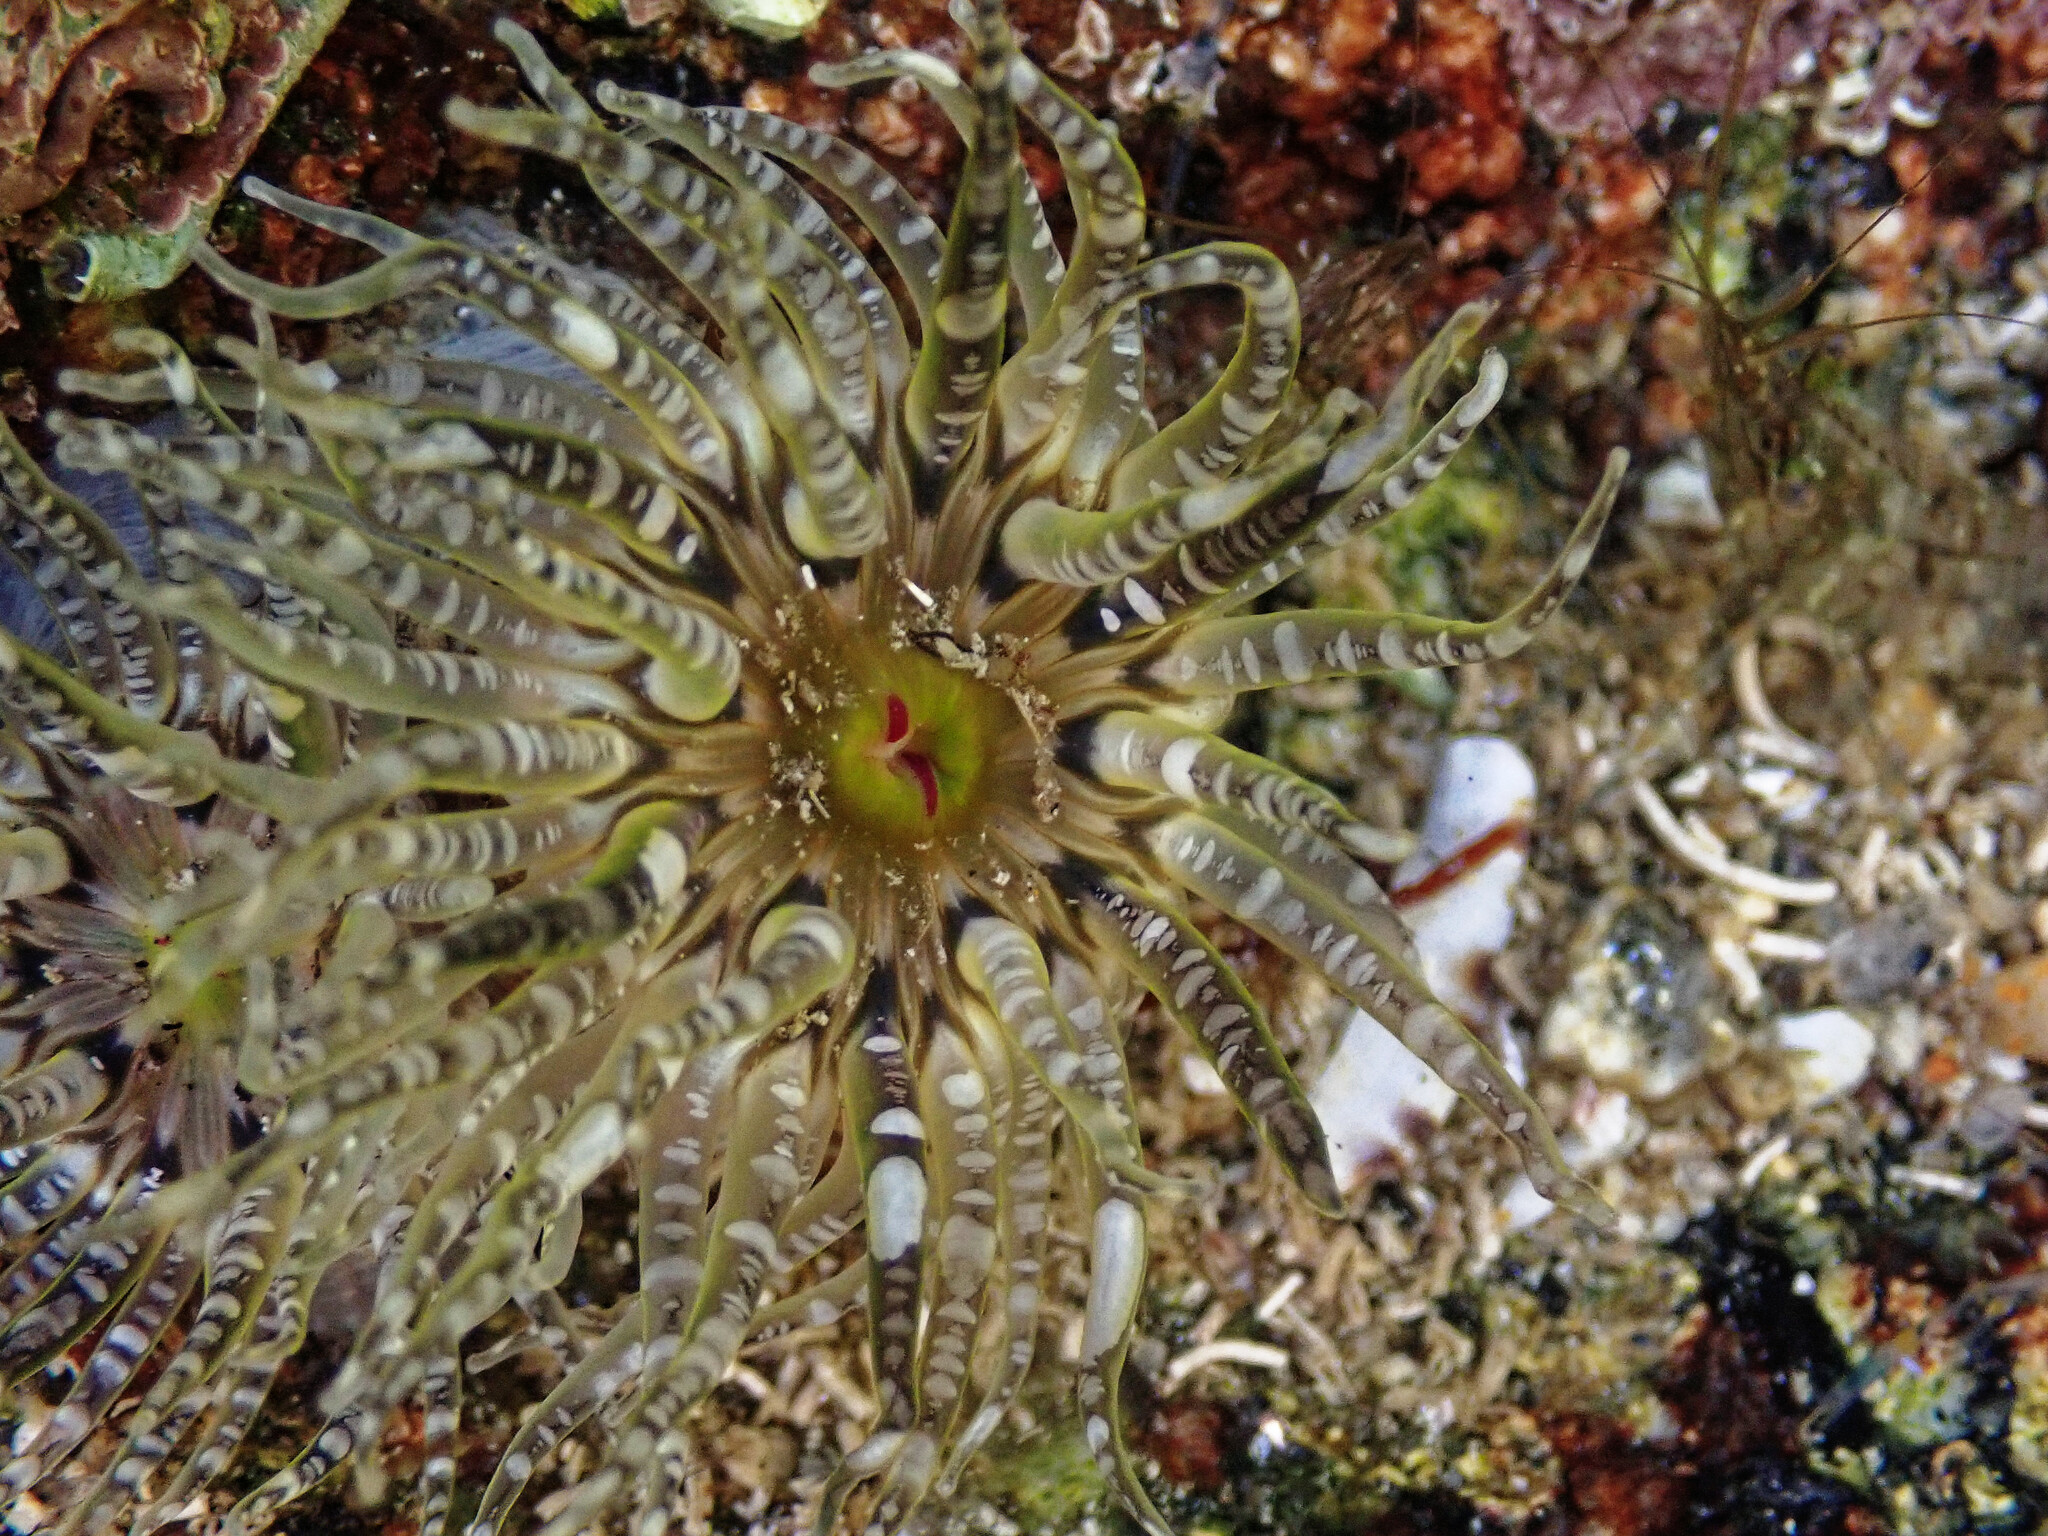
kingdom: Animalia
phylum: Cnidaria
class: Anthozoa
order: Actiniaria
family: Actiniidae
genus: Bunodactis
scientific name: Bunodactis verrucosa
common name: Gem anemone
